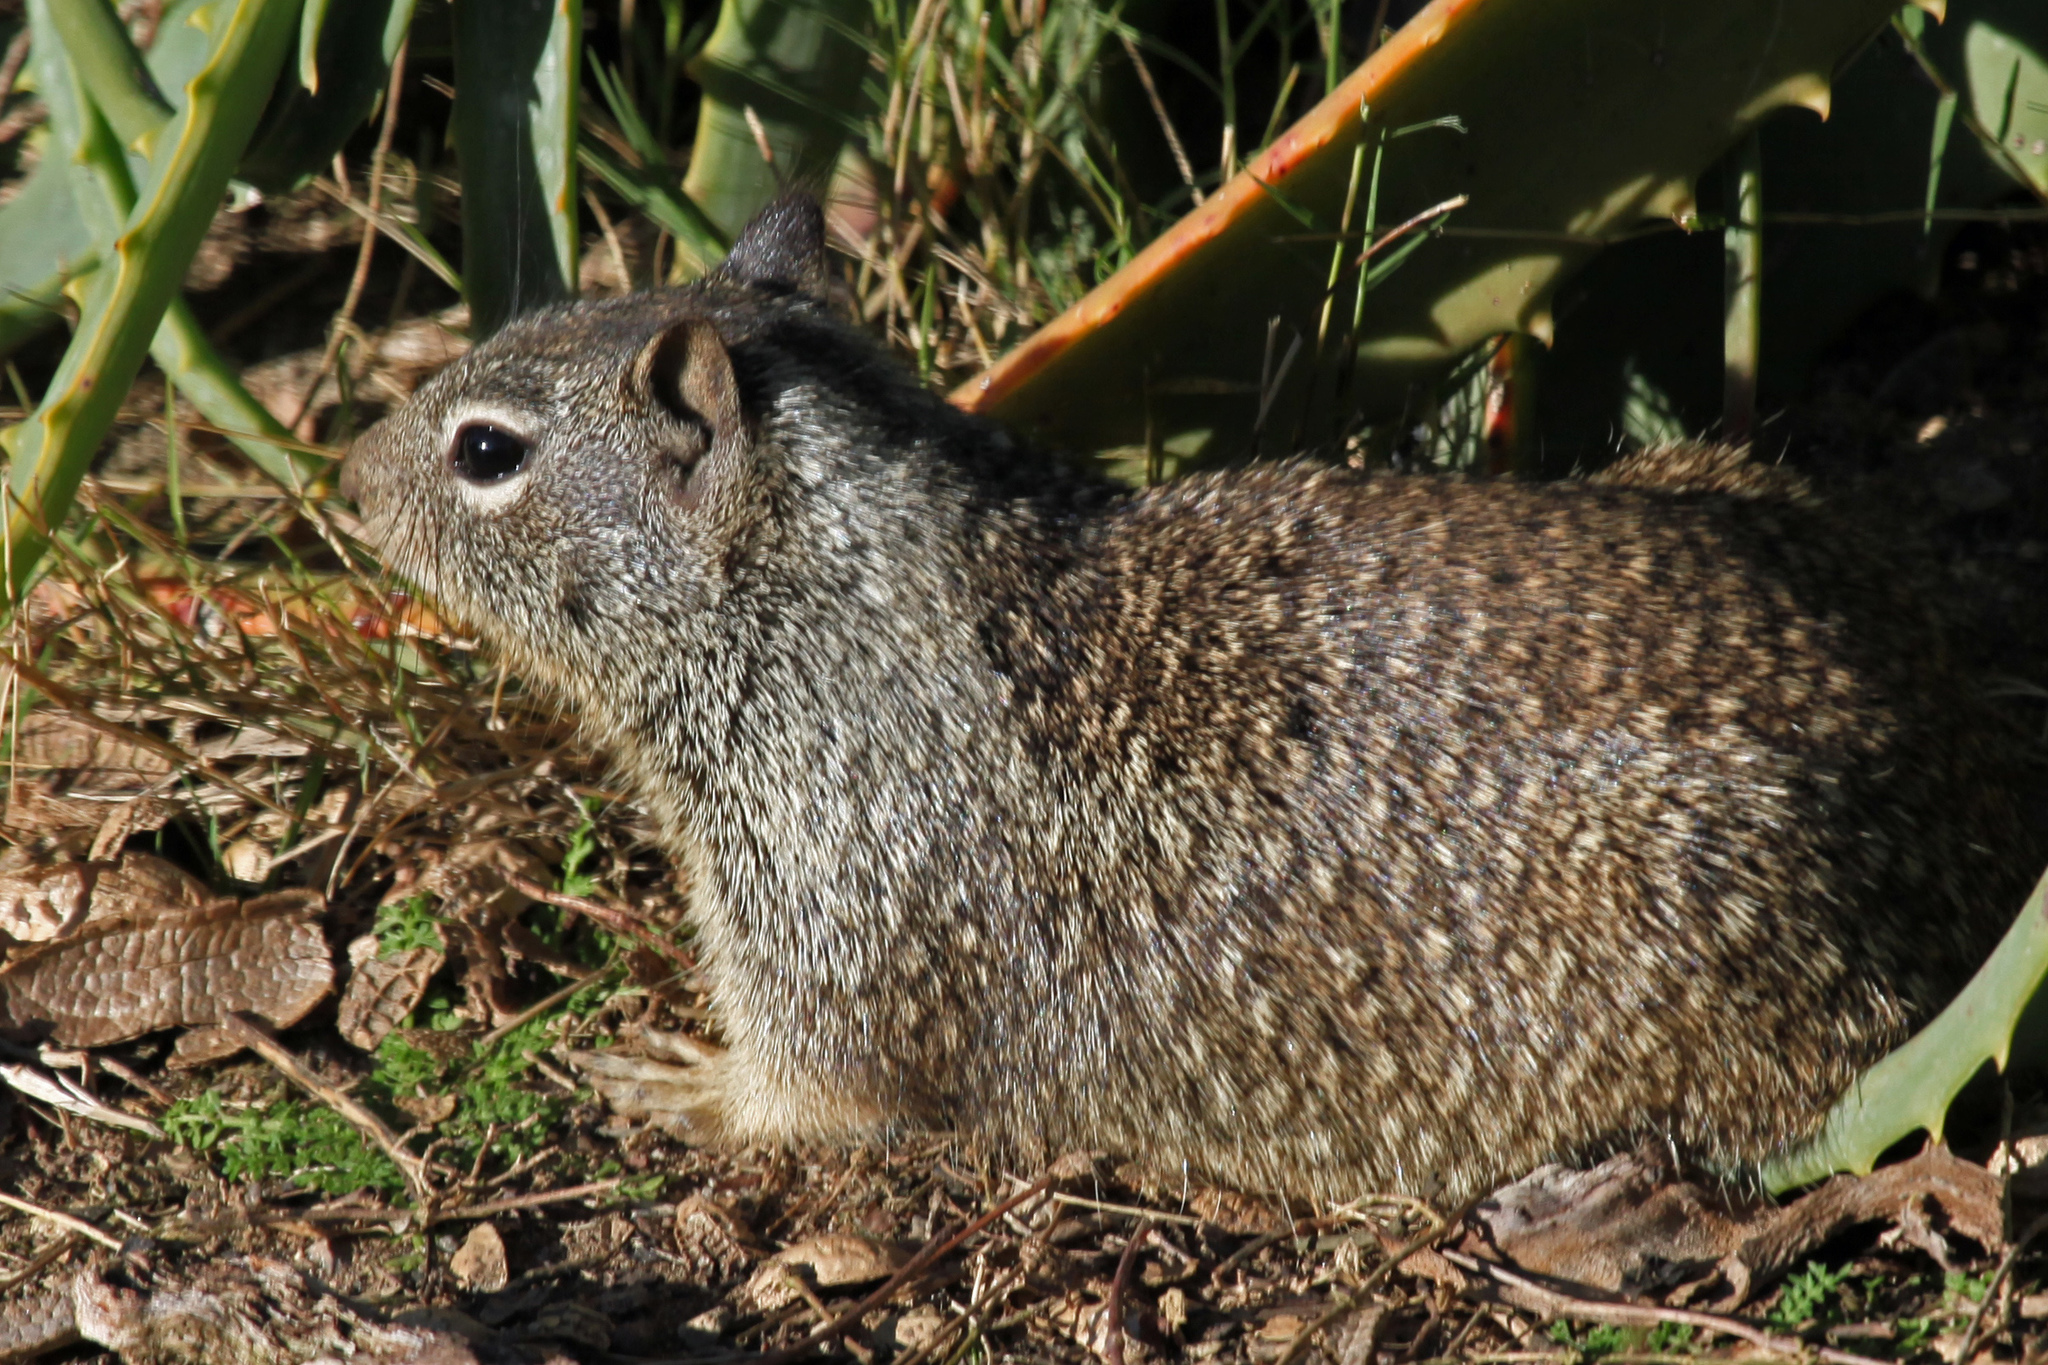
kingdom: Animalia
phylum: Chordata
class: Mammalia
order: Rodentia
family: Sciuridae
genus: Otospermophilus
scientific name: Otospermophilus beecheyi
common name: California ground squirrel
